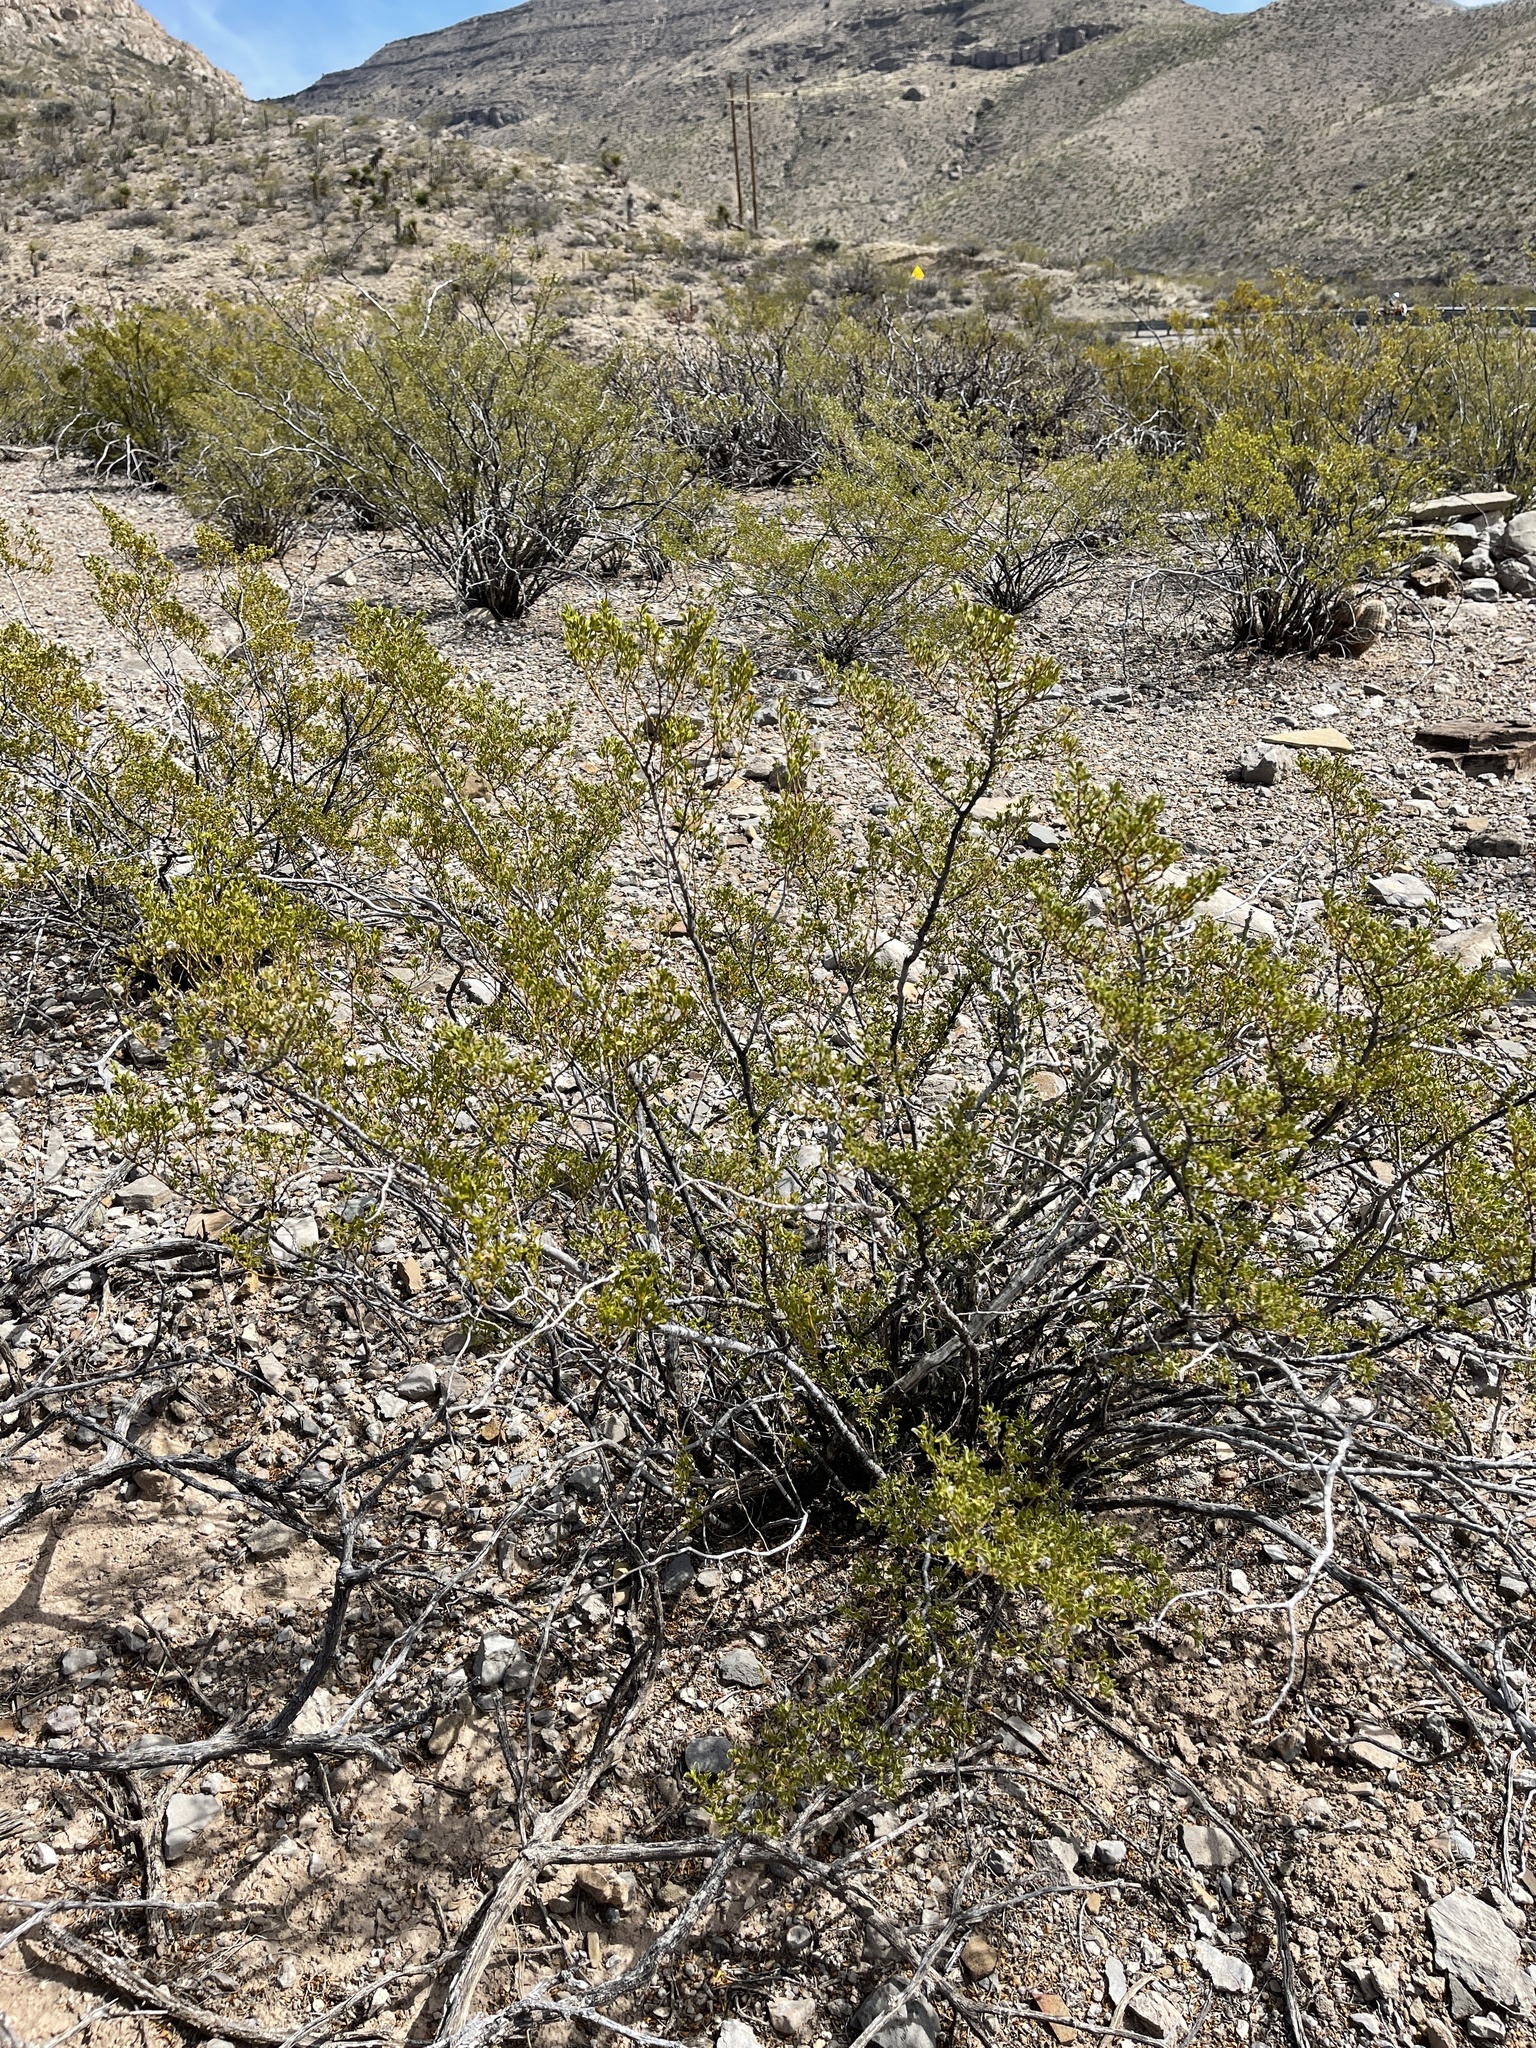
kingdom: Plantae
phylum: Tracheophyta
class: Magnoliopsida
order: Zygophyllales
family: Zygophyllaceae
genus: Larrea
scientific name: Larrea tridentata
